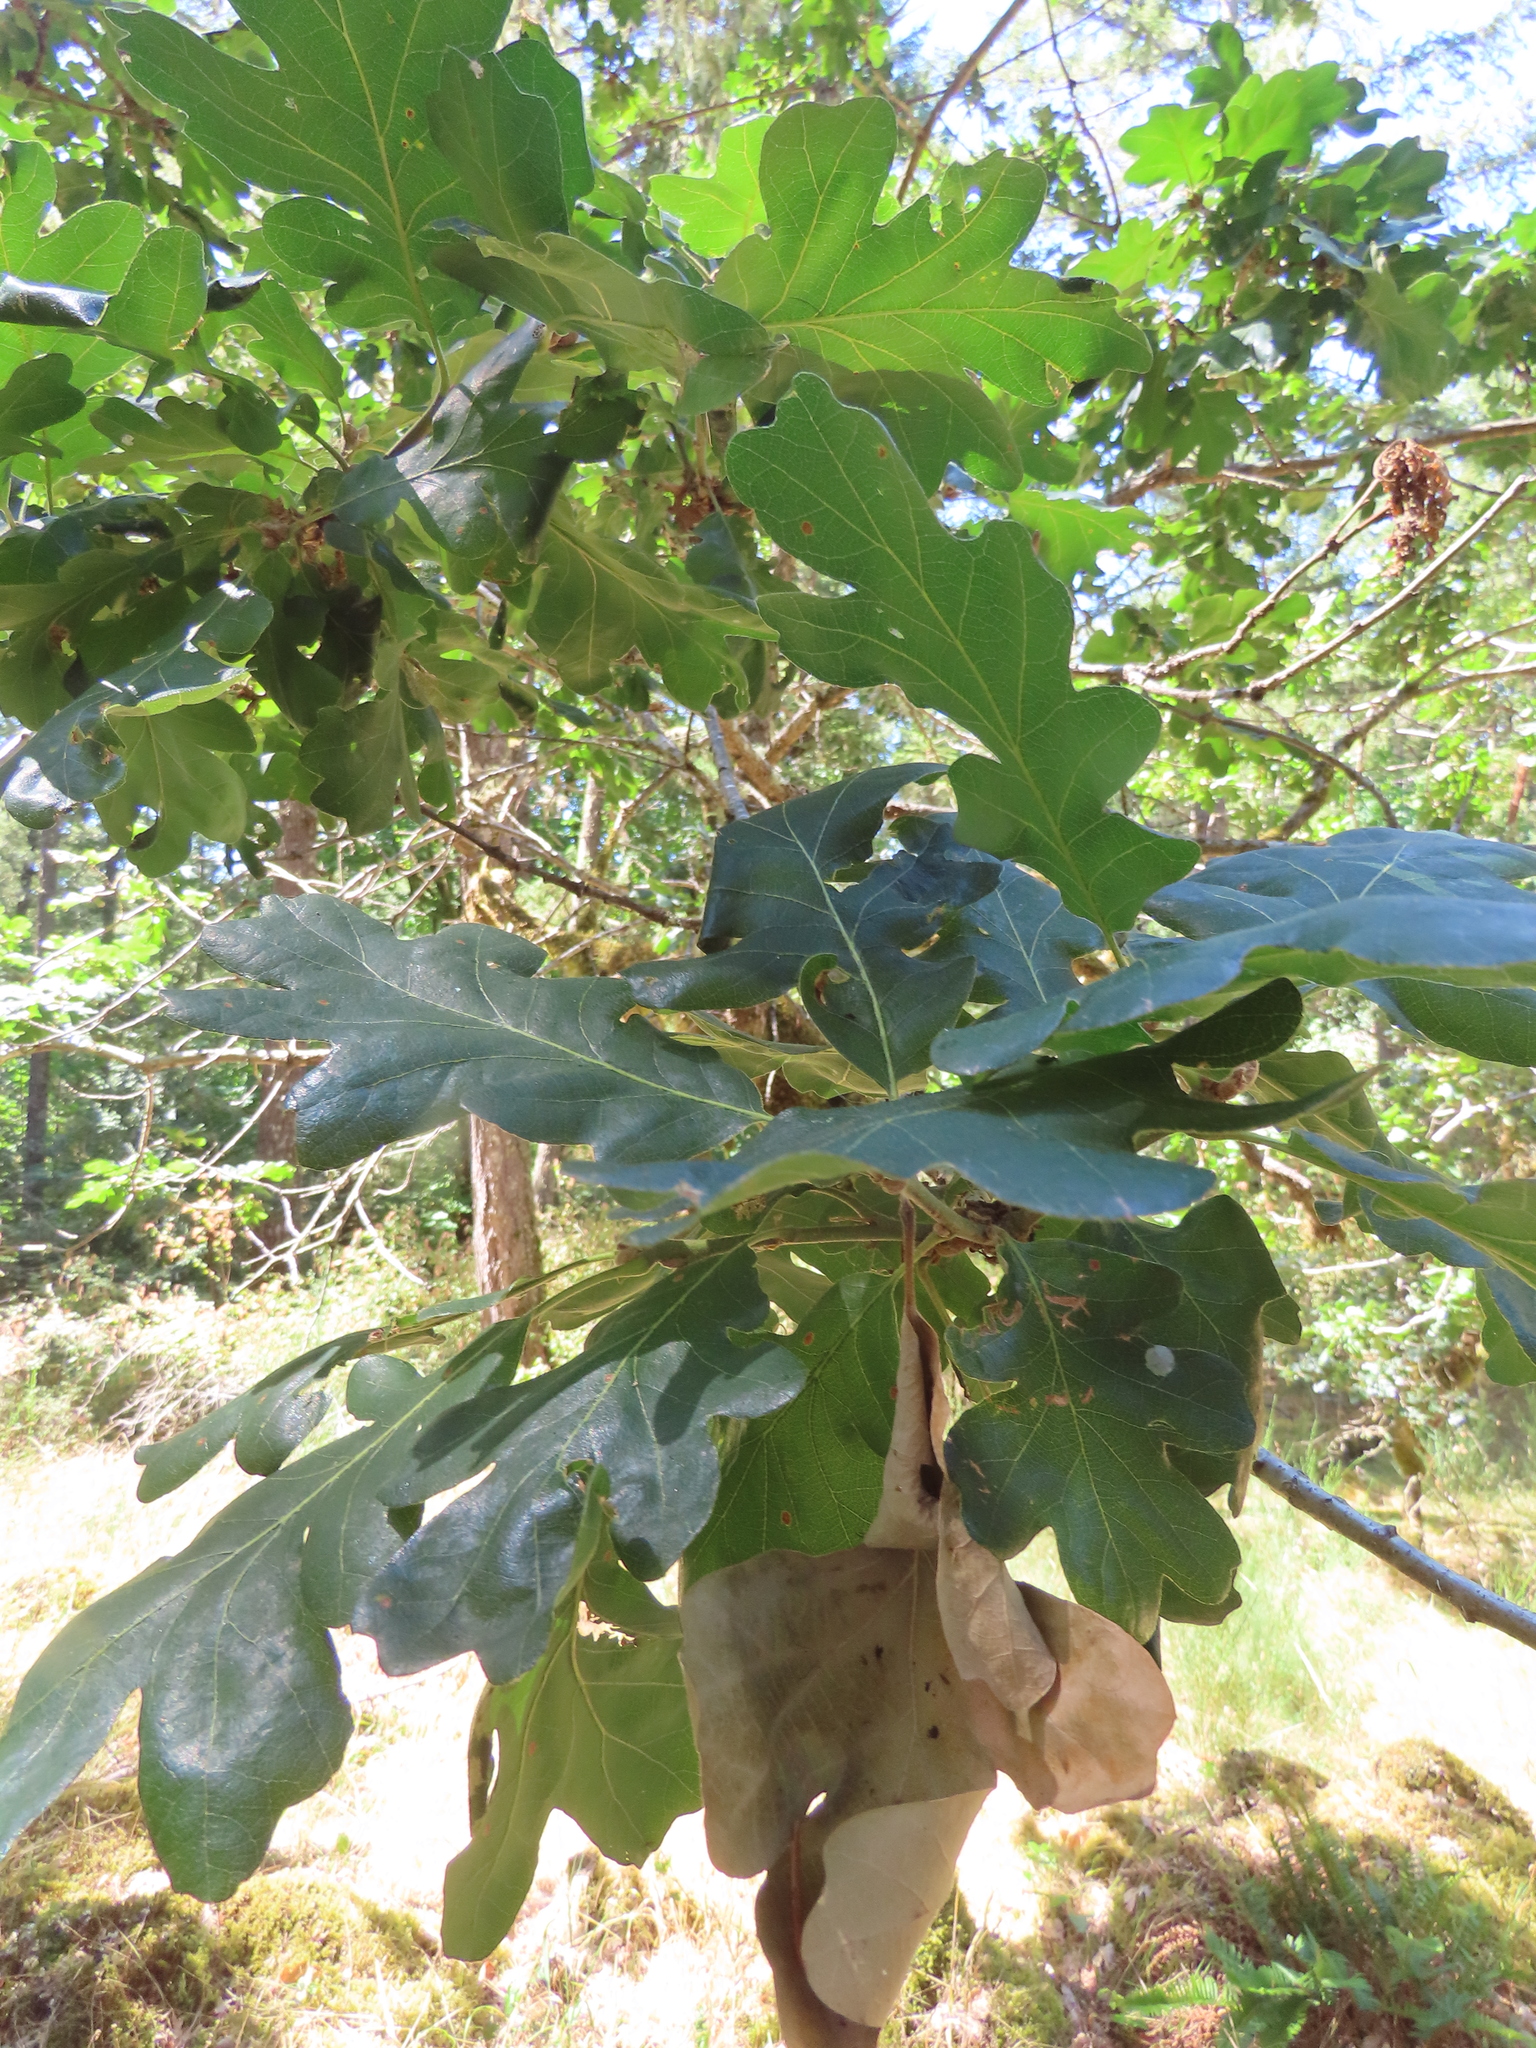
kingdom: Plantae
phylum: Tracheophyta
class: Magnoliopsida
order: Fagales
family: Fagaceae
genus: Quercus
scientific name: Quercus garryana
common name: Garry oak
